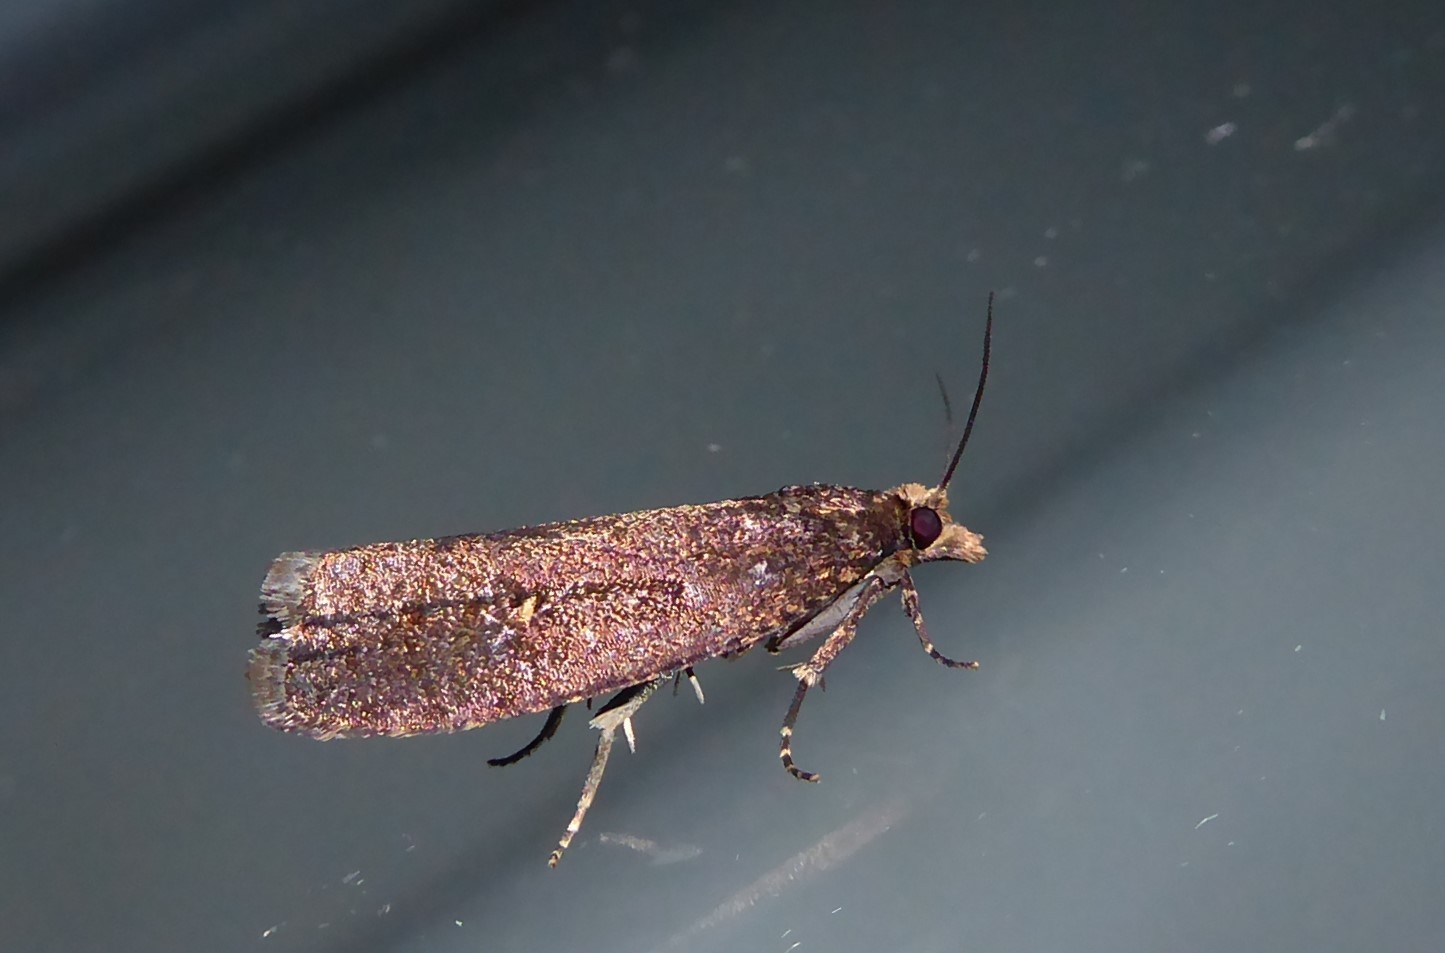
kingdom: Animalia
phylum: Arthropoda
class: Insecta
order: Lepidoptera
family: Tortricidae
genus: Cryptaspasma
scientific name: Cryptaspasma querula
